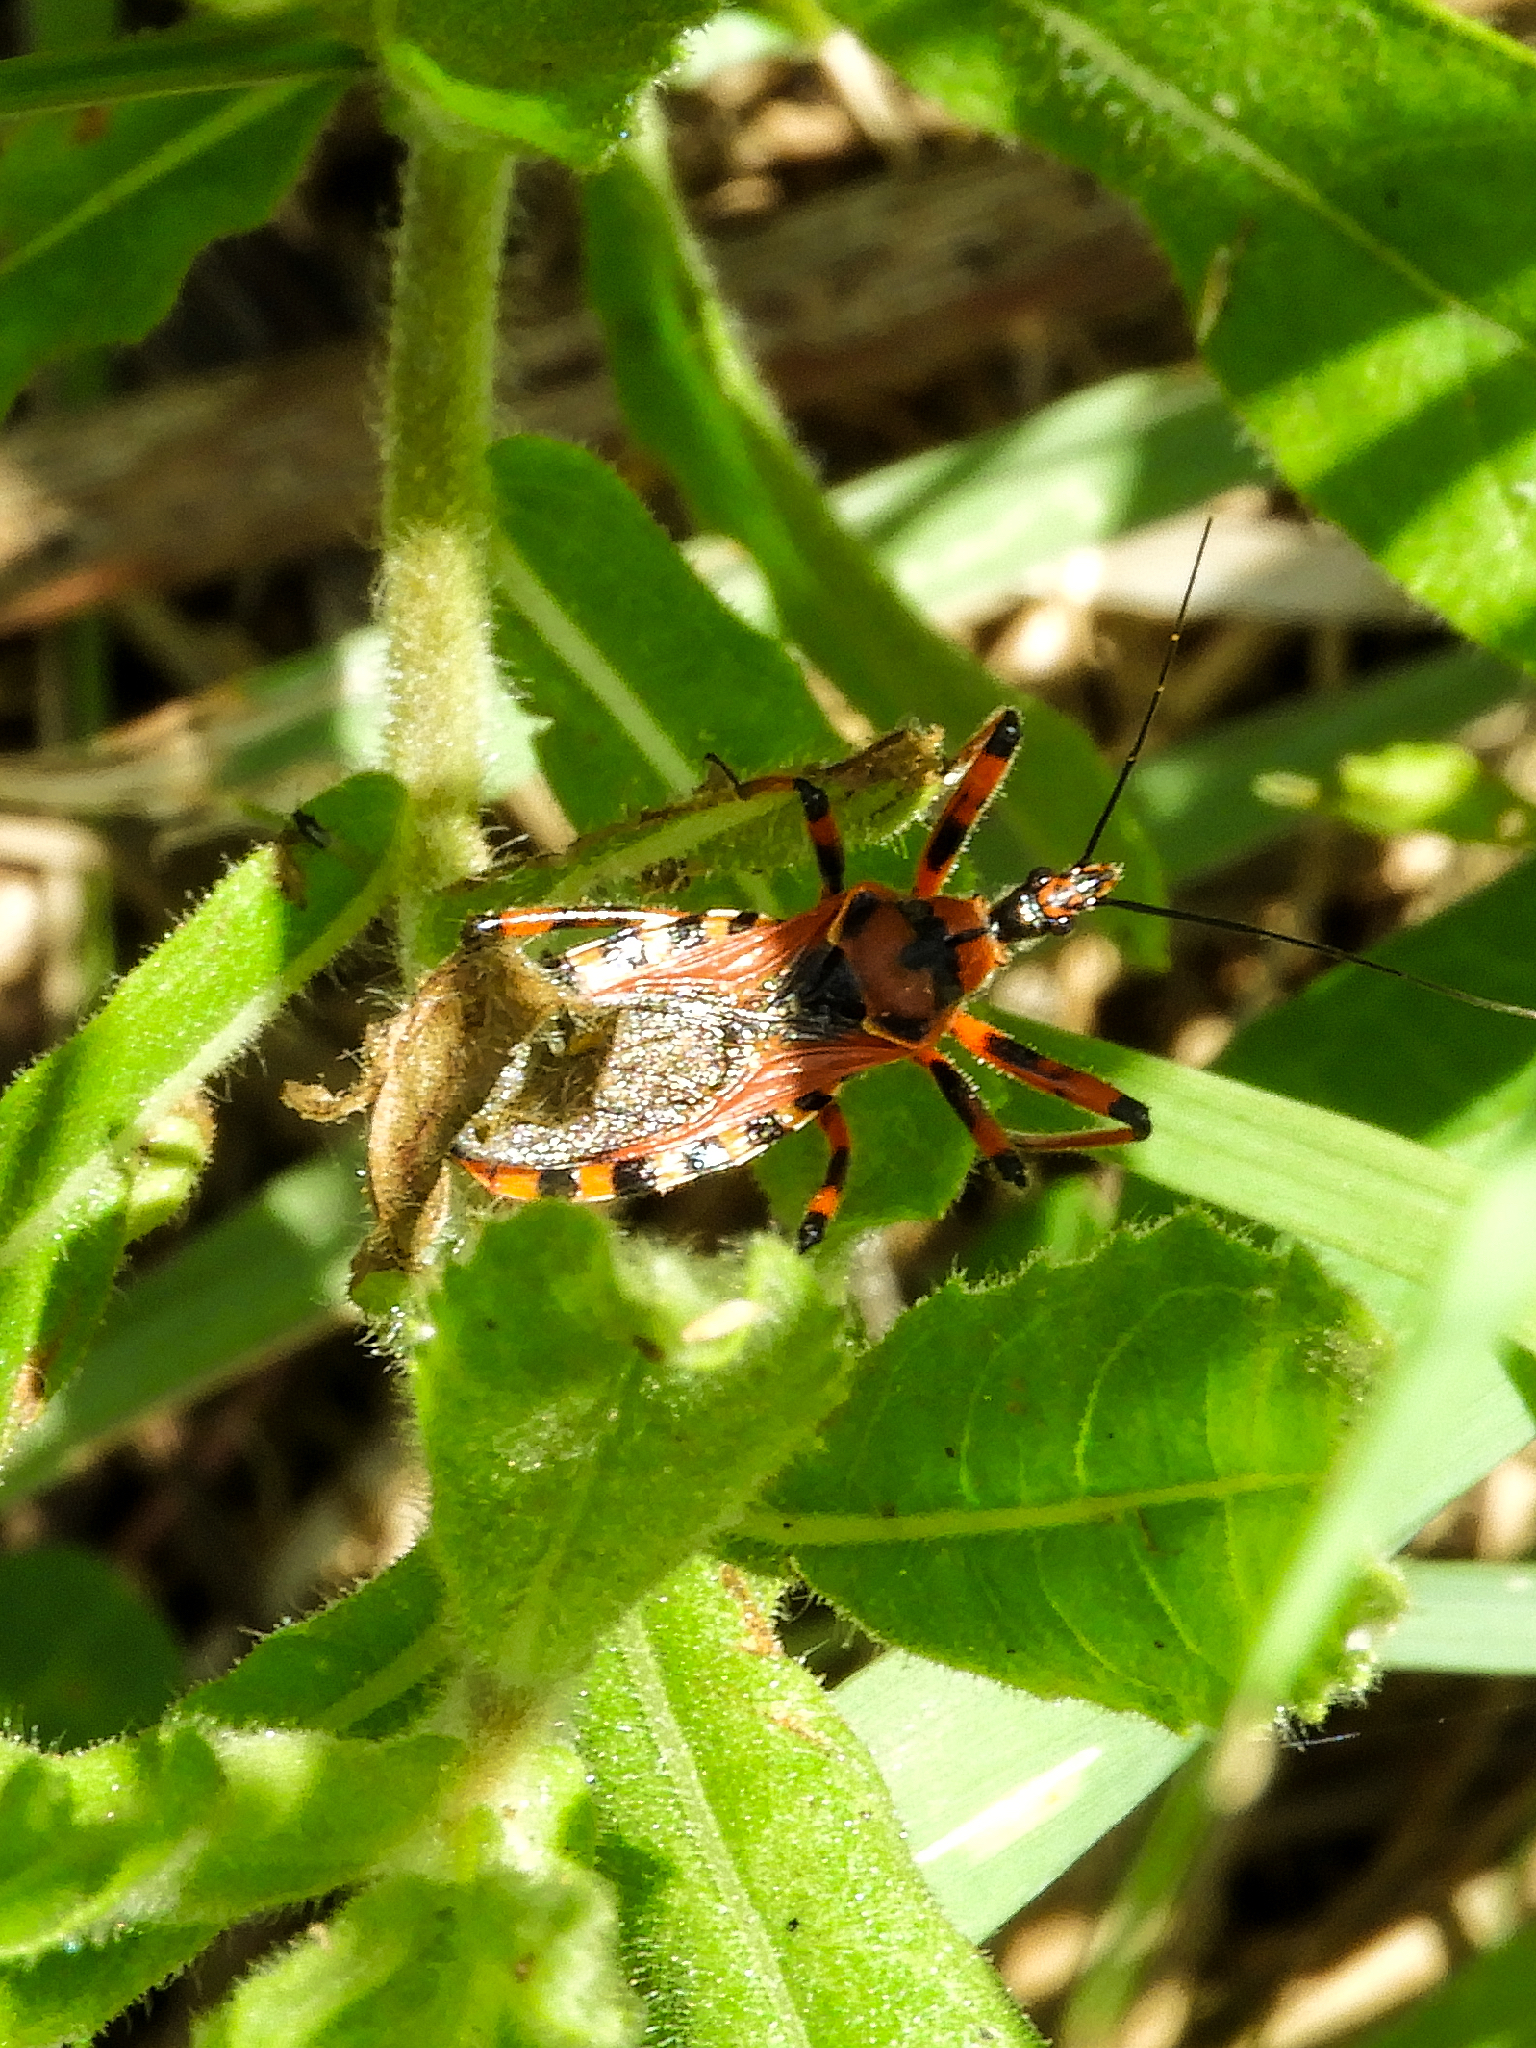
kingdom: Animalia
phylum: Arthropoda
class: Insecta
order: Hemiptera
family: Reduviidae
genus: Rhynocoris
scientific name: Rhynocoris
